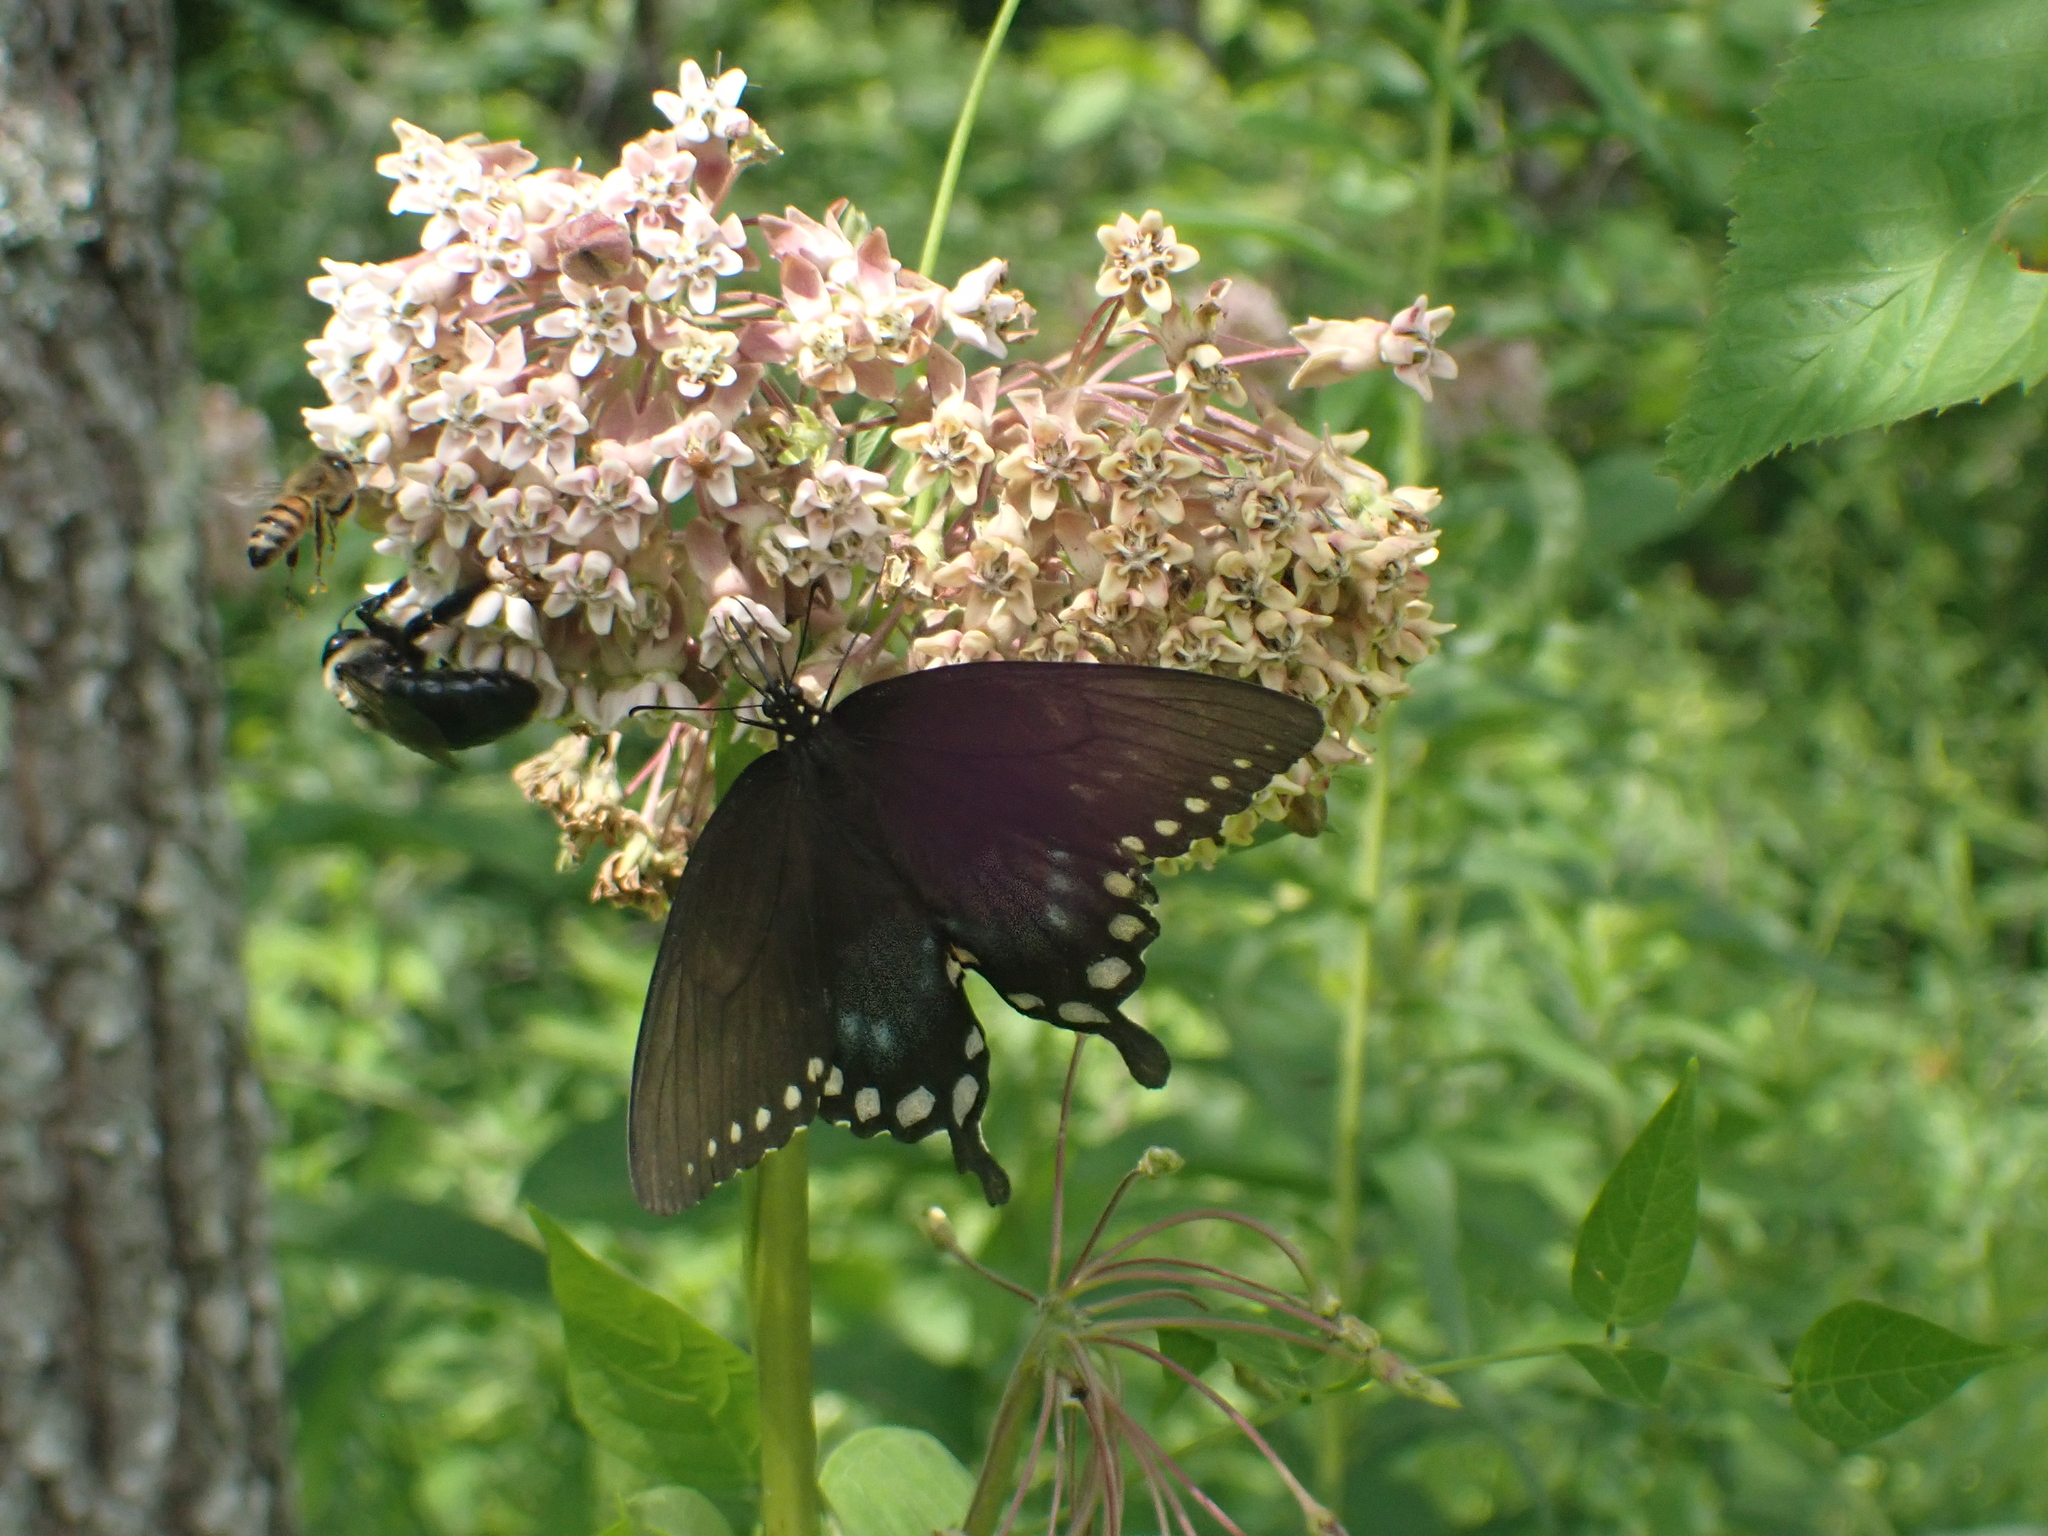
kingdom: Animalia
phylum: Arthropoda
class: Insecta
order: Lepidoptera
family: Papilionidae
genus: Papilio
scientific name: Papilio troilus
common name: Spicebush swallowtail
